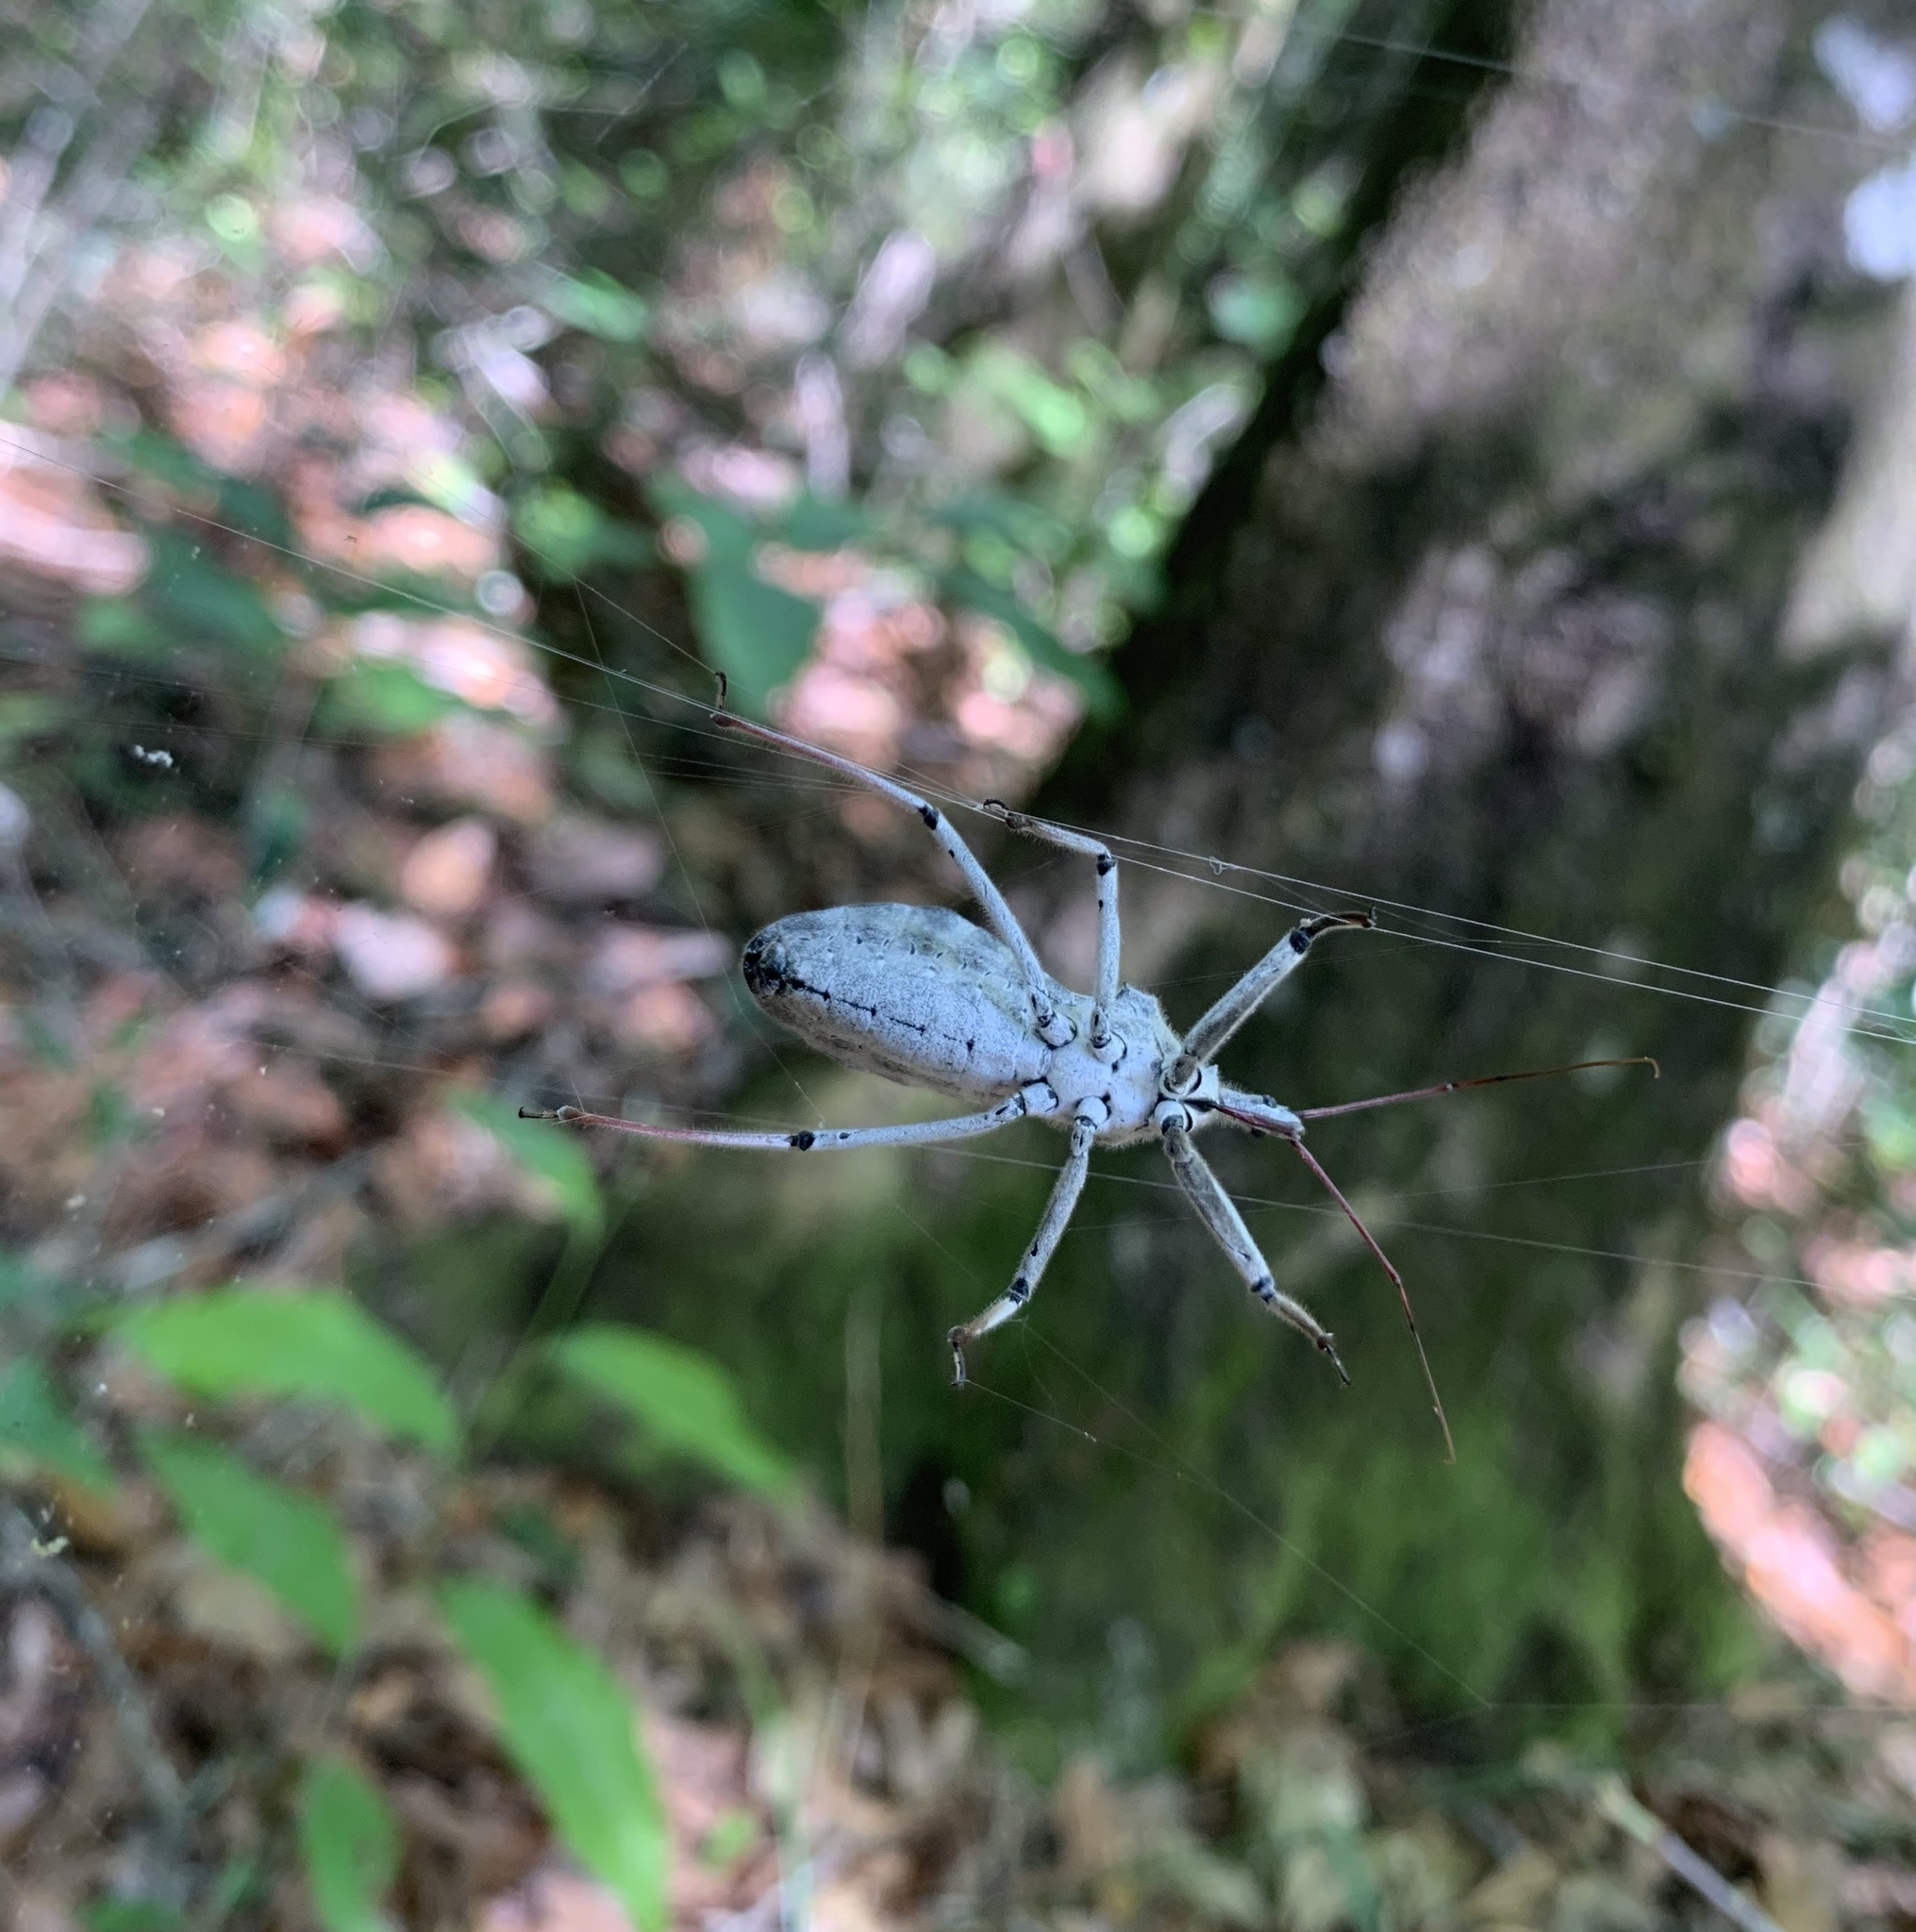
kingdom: Animalia
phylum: Arthropoda
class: Insecta
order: Hemiptera
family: Reduviidae
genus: Arilus
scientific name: Arilus cristatus
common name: North american wheel bug
